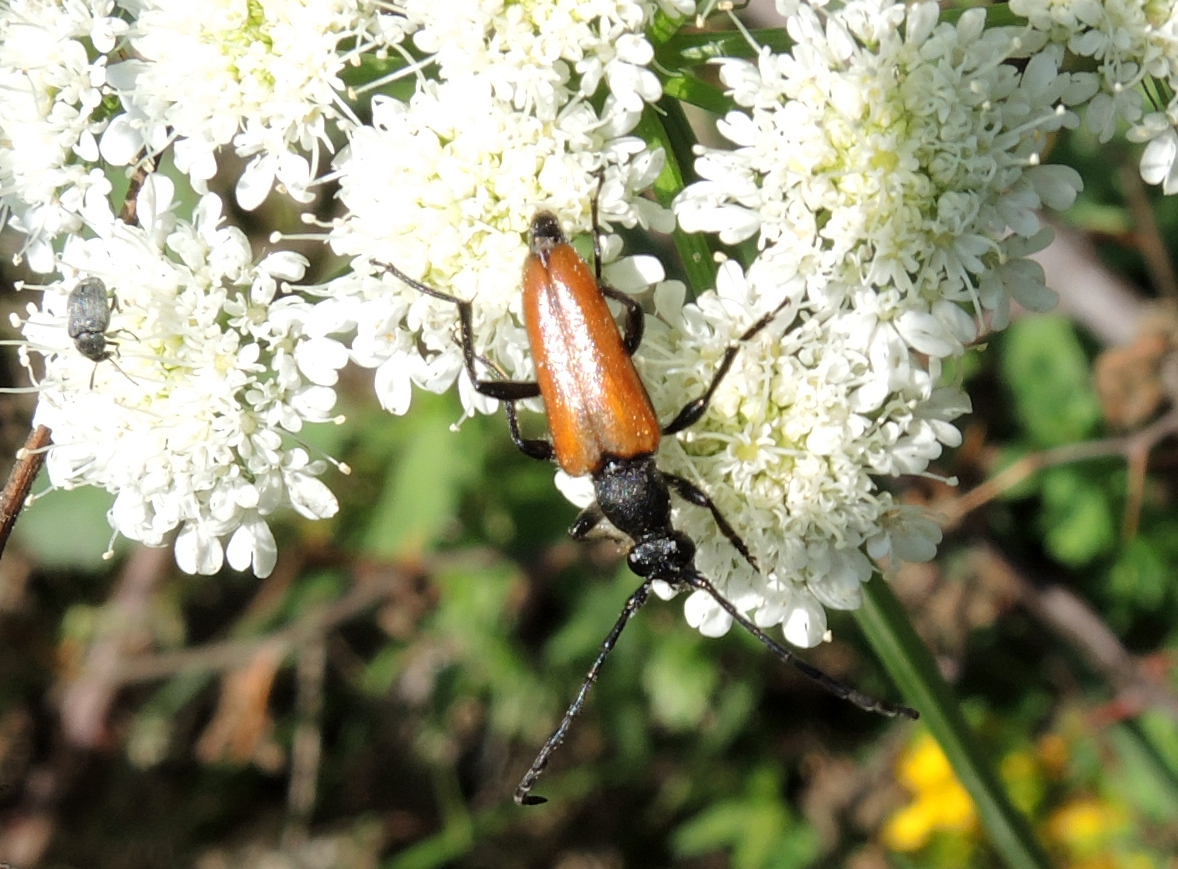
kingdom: Animalia
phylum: Arthropoda
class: Insecta
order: Coleoptera
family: Cerambycidae
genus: Paracorymbia
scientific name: Paracorymbia pallens
